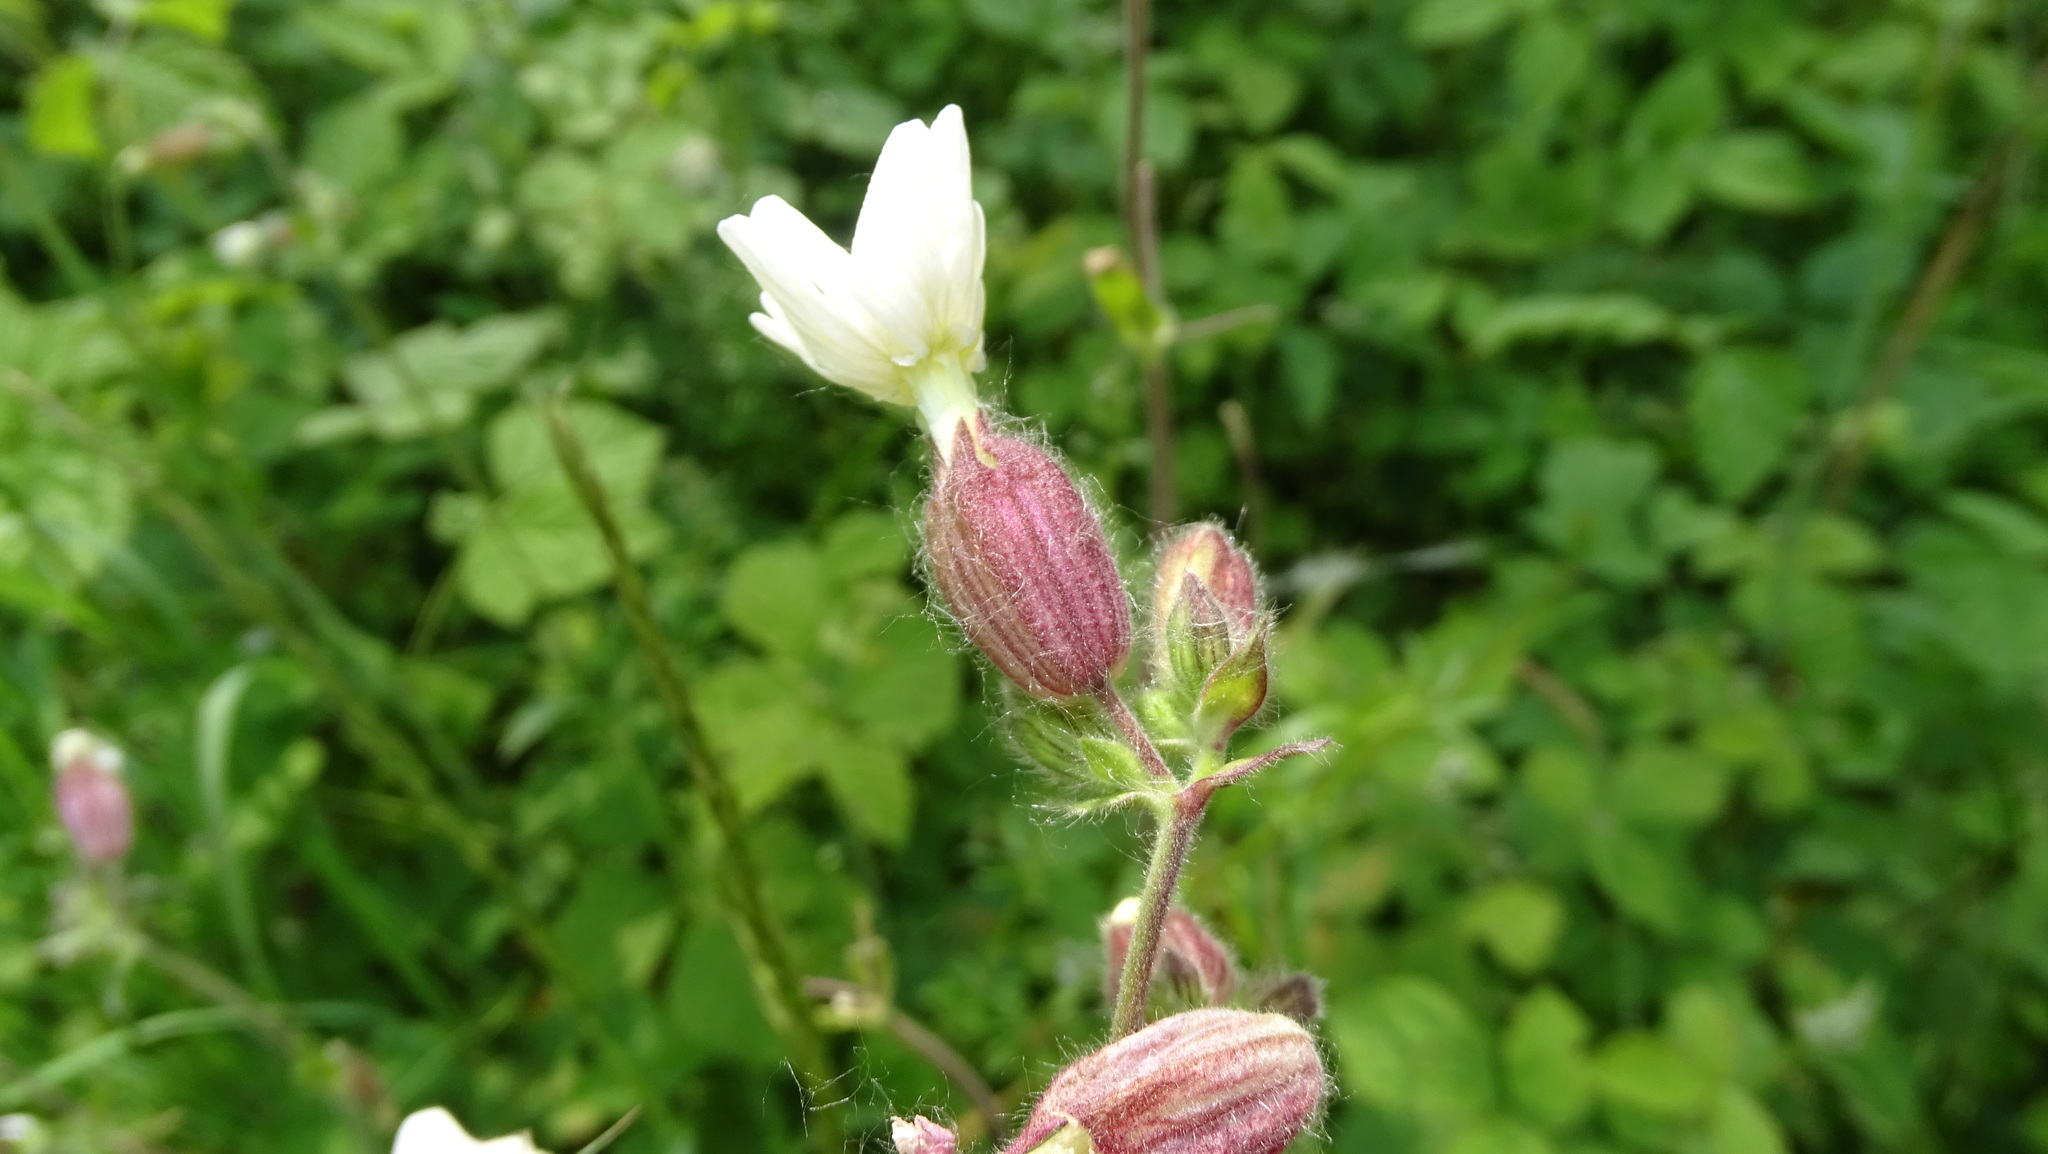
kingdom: Plantae
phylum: Tracheophyta
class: Magnoliopsida
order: Caryophyllales
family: Caryophyllaceae
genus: Silene
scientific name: Silene latifolia
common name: White campion
